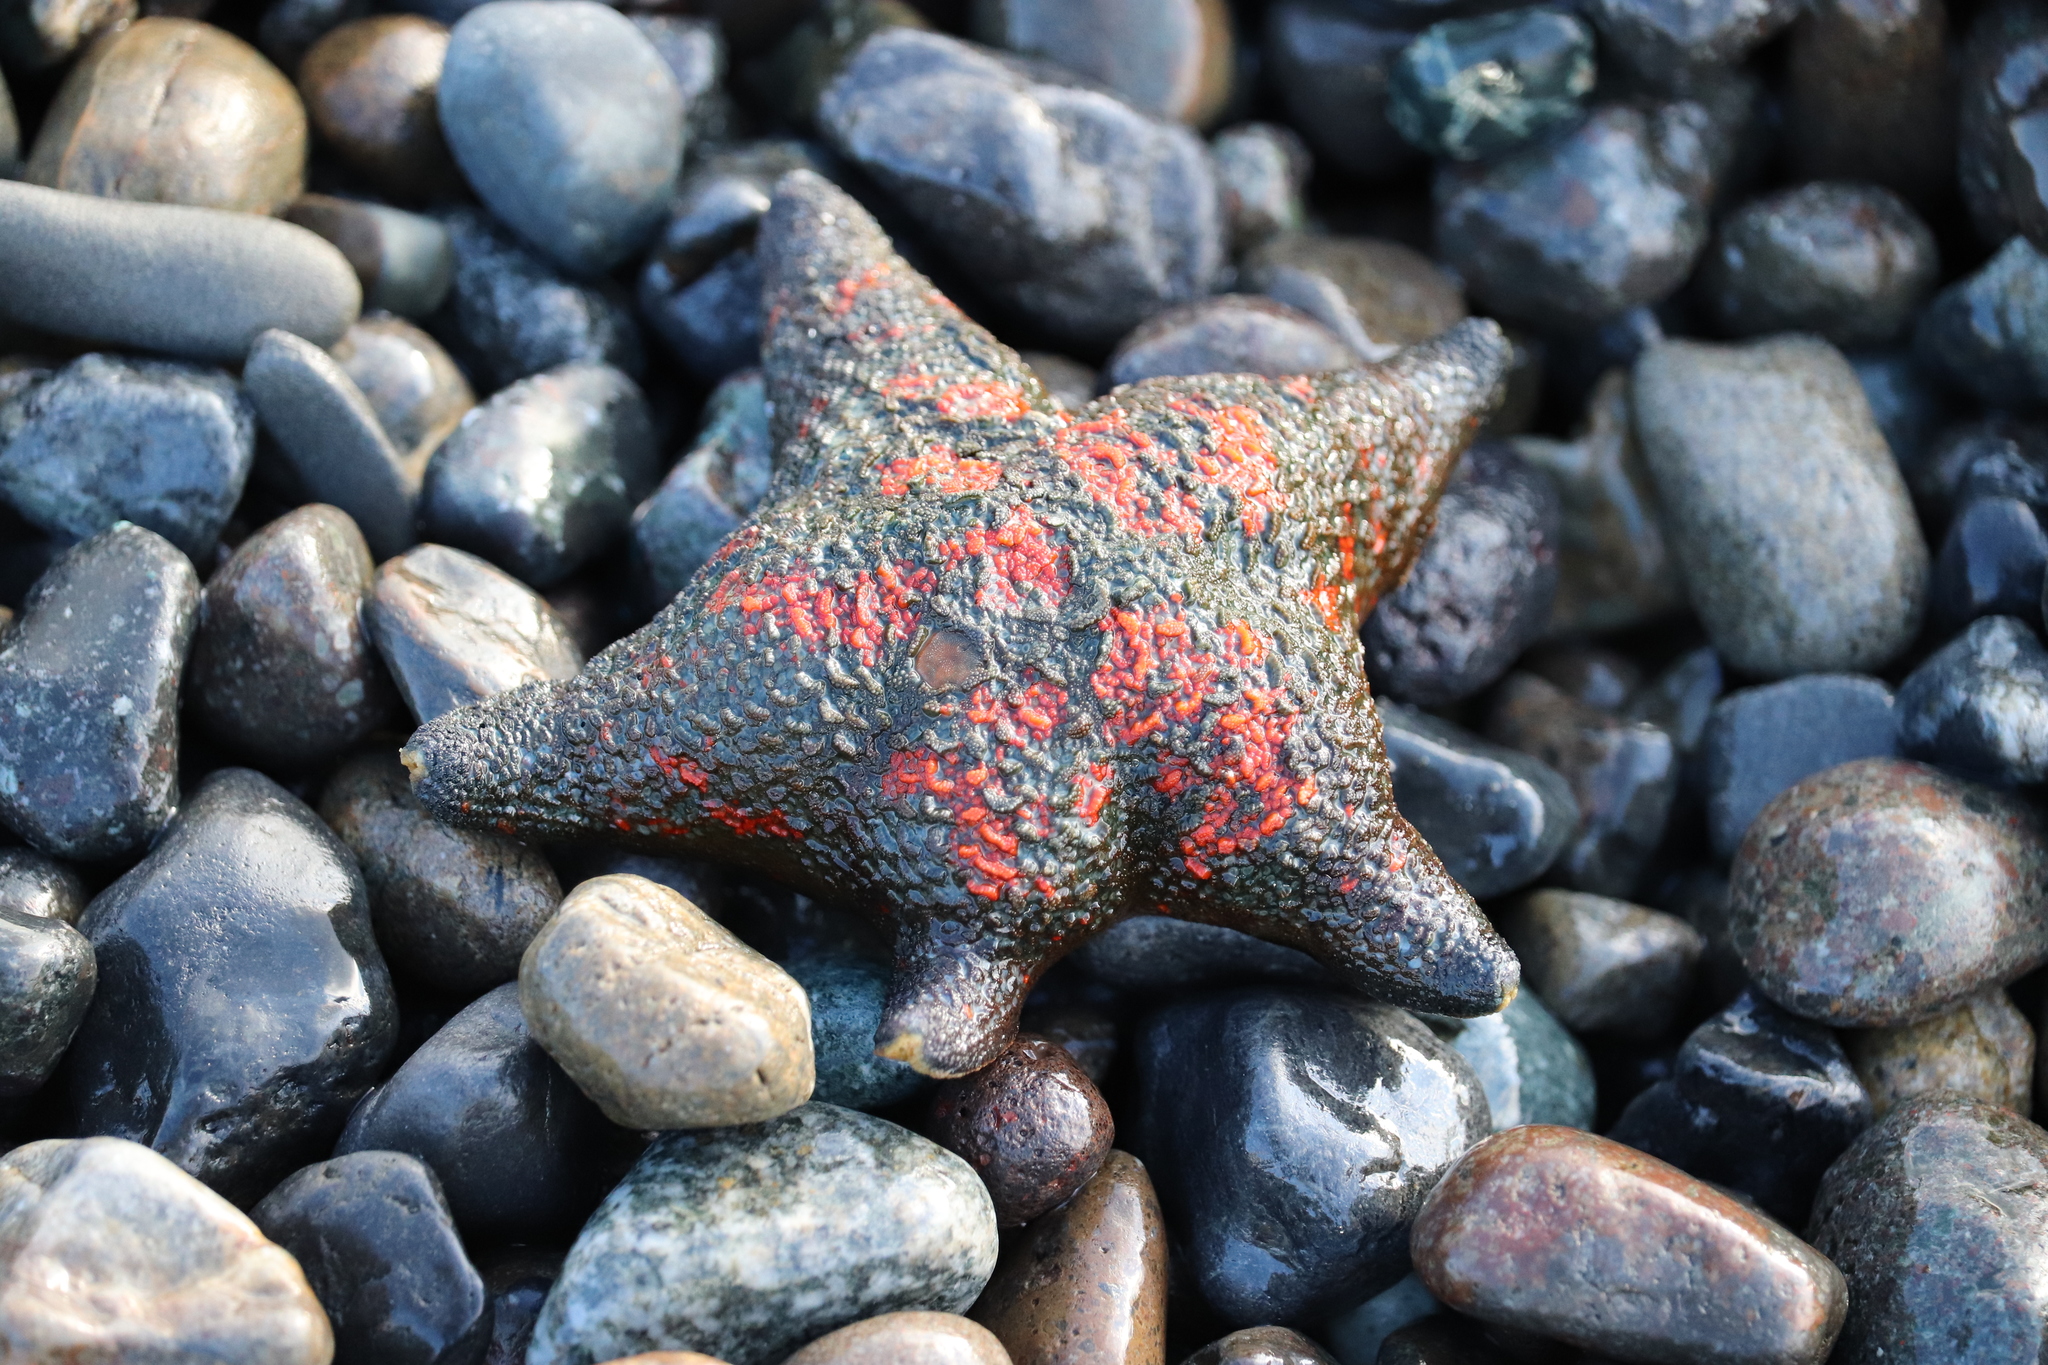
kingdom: Animalia
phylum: Echinodermata
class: Asteroidea
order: Valvatida
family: Asterinidae
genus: Patiria
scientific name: Patiria pectinifera
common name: Blue bat star
